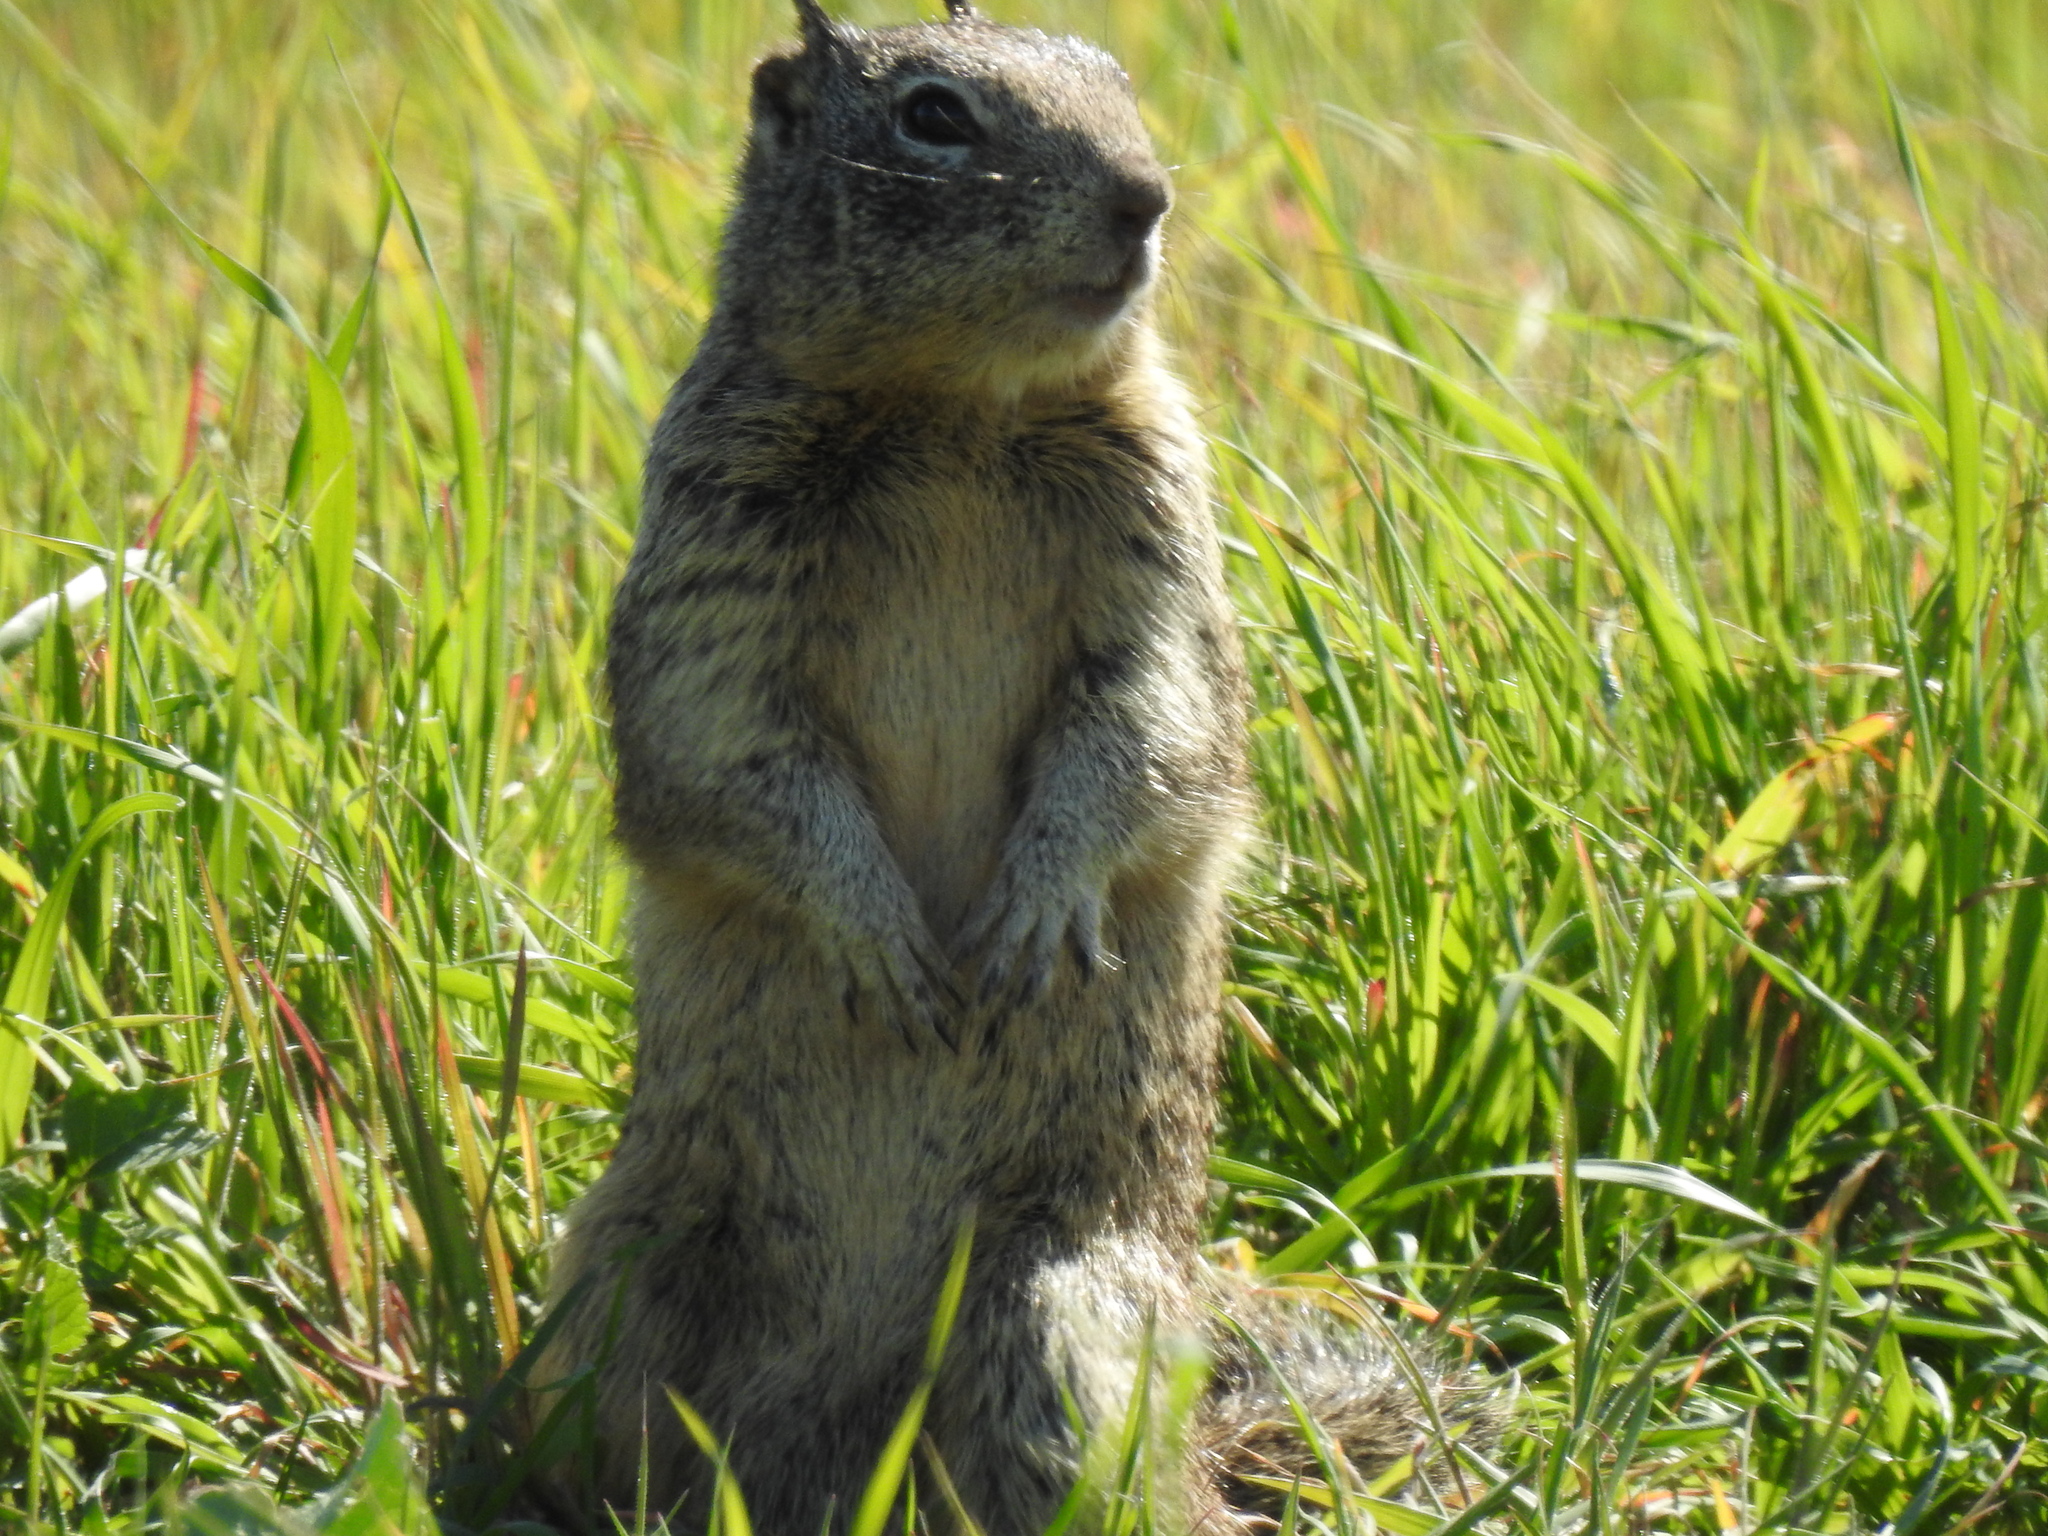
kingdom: Animalia
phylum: Chordata
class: Mammalia
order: Rodentia
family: Sciuridae
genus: Otospermophilus
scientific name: Otospermophilus beecheyi
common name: California ground squirrel
